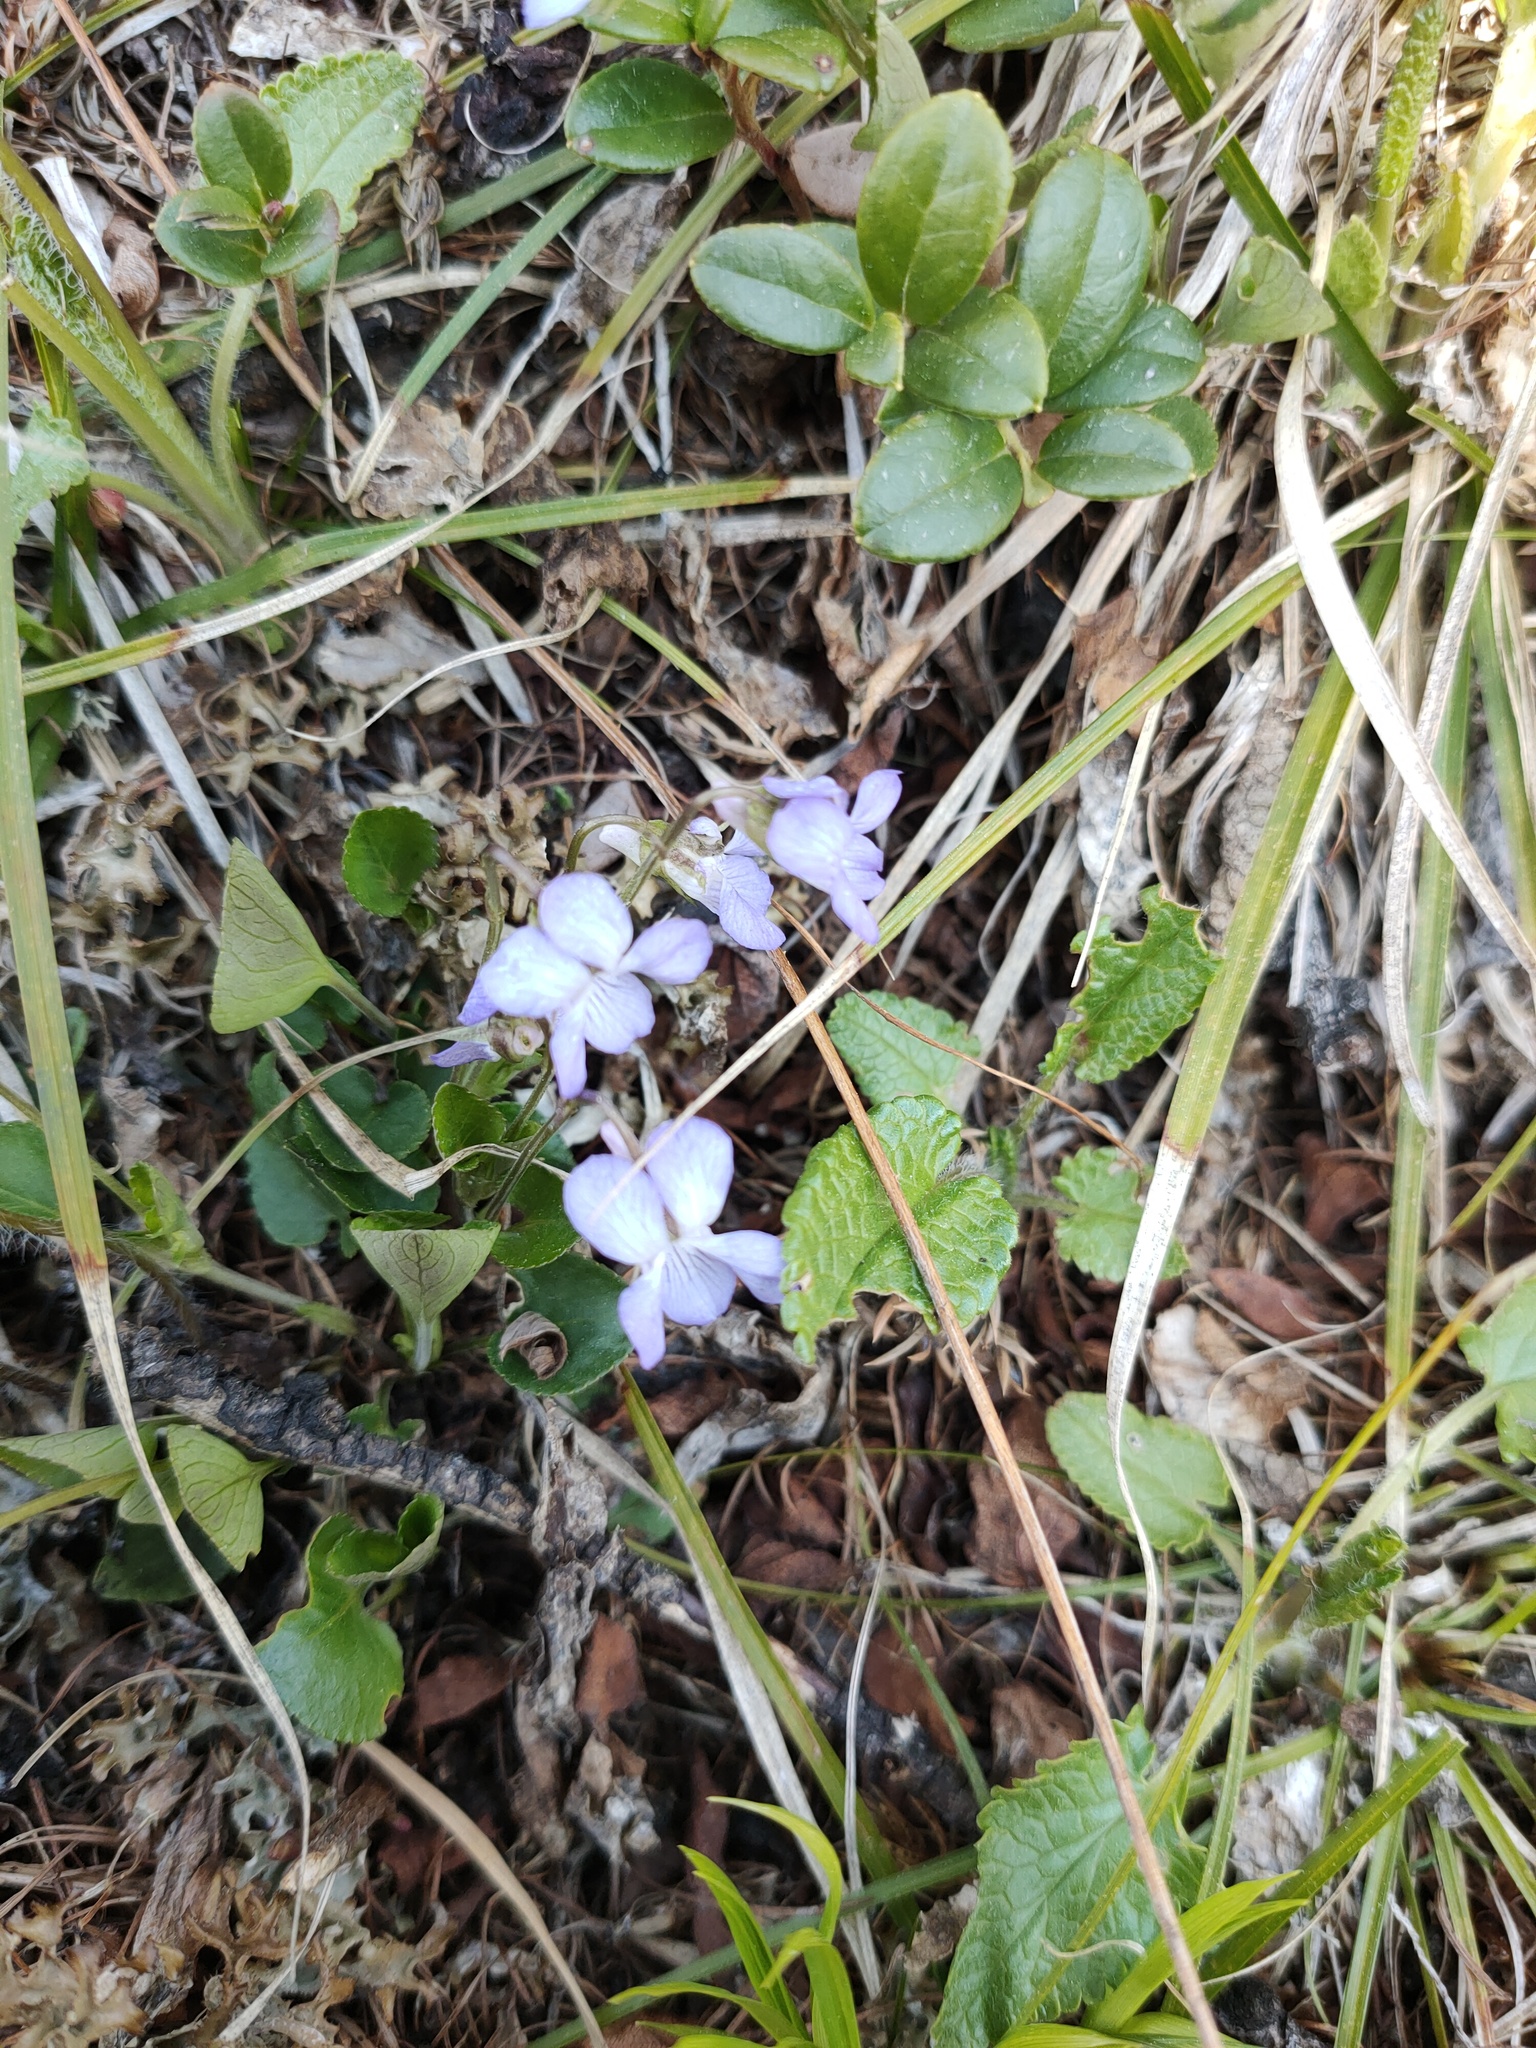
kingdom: Plantae
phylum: Tracheophyta
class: Magnoliopsida
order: Malpighiales
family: Violaceae
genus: Viola
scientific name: Viola rupestris
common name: Teesdale violet
